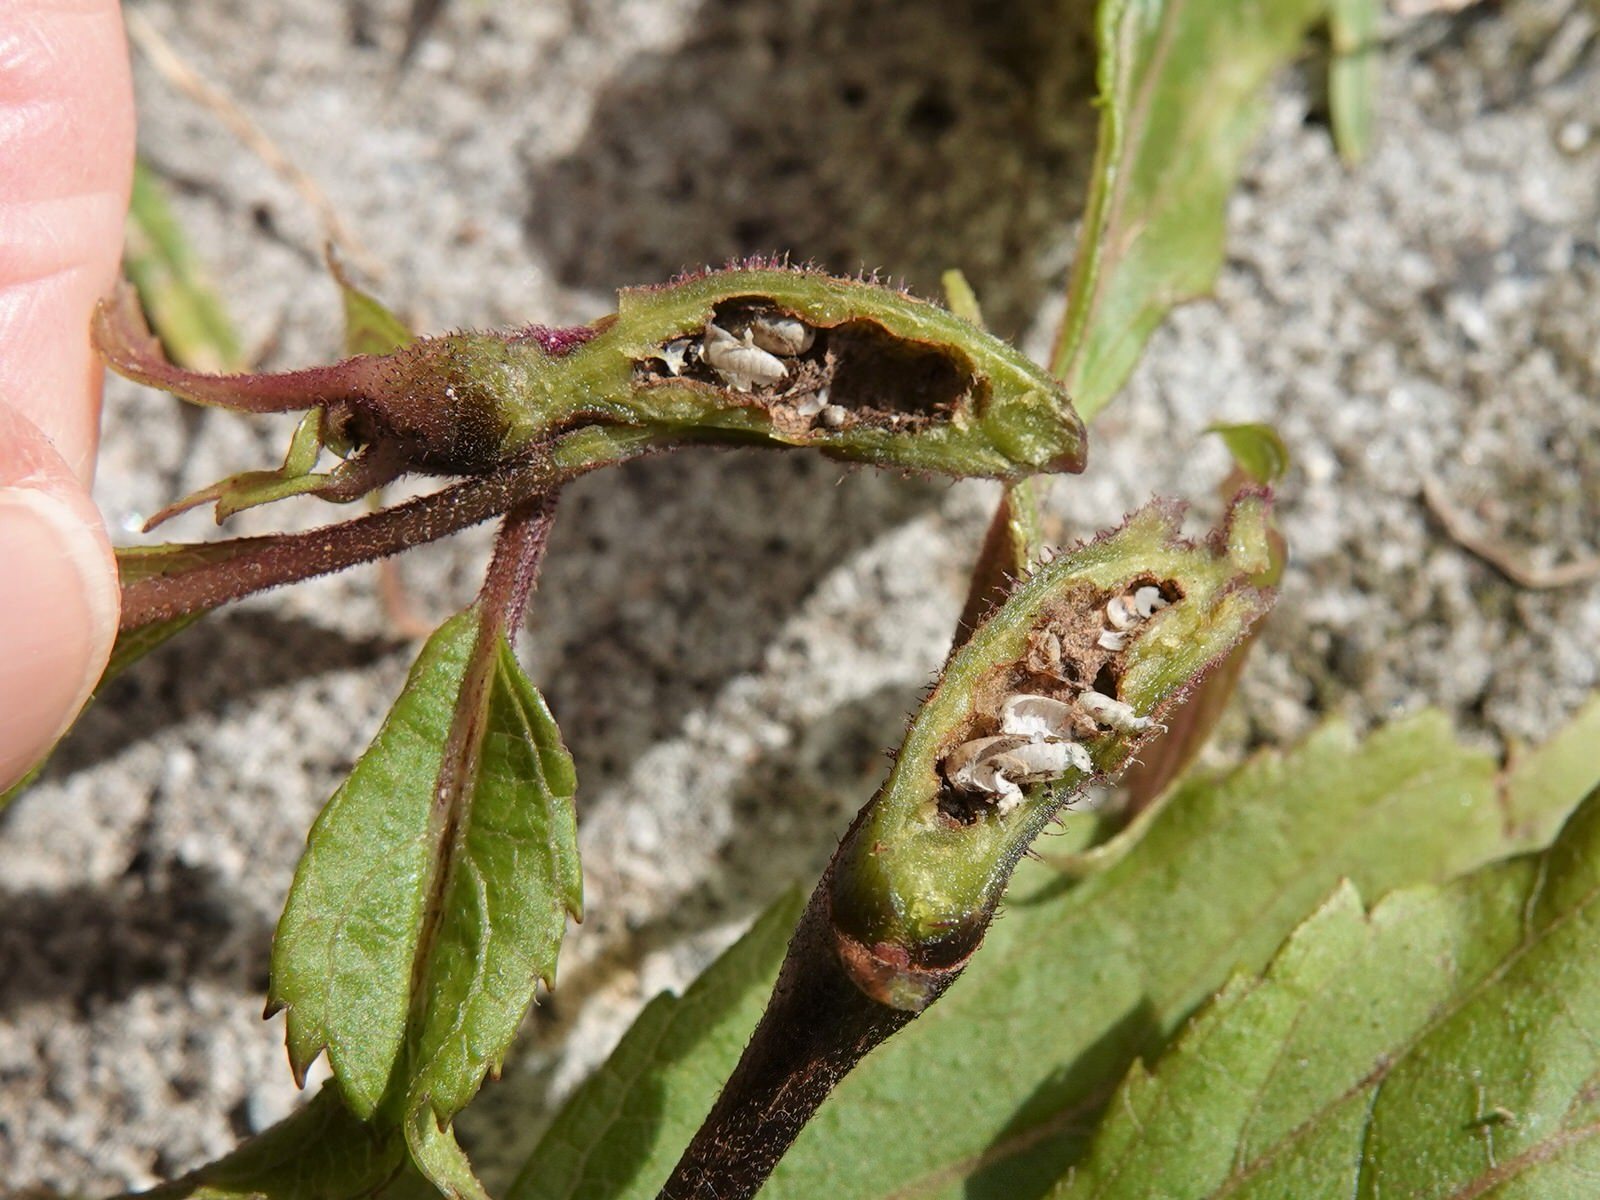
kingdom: Animalia
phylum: Arthropoda
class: Insecta
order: Diptera
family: Tephritidae
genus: Procecidochares
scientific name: Procecidochares alani
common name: Fruit fly
